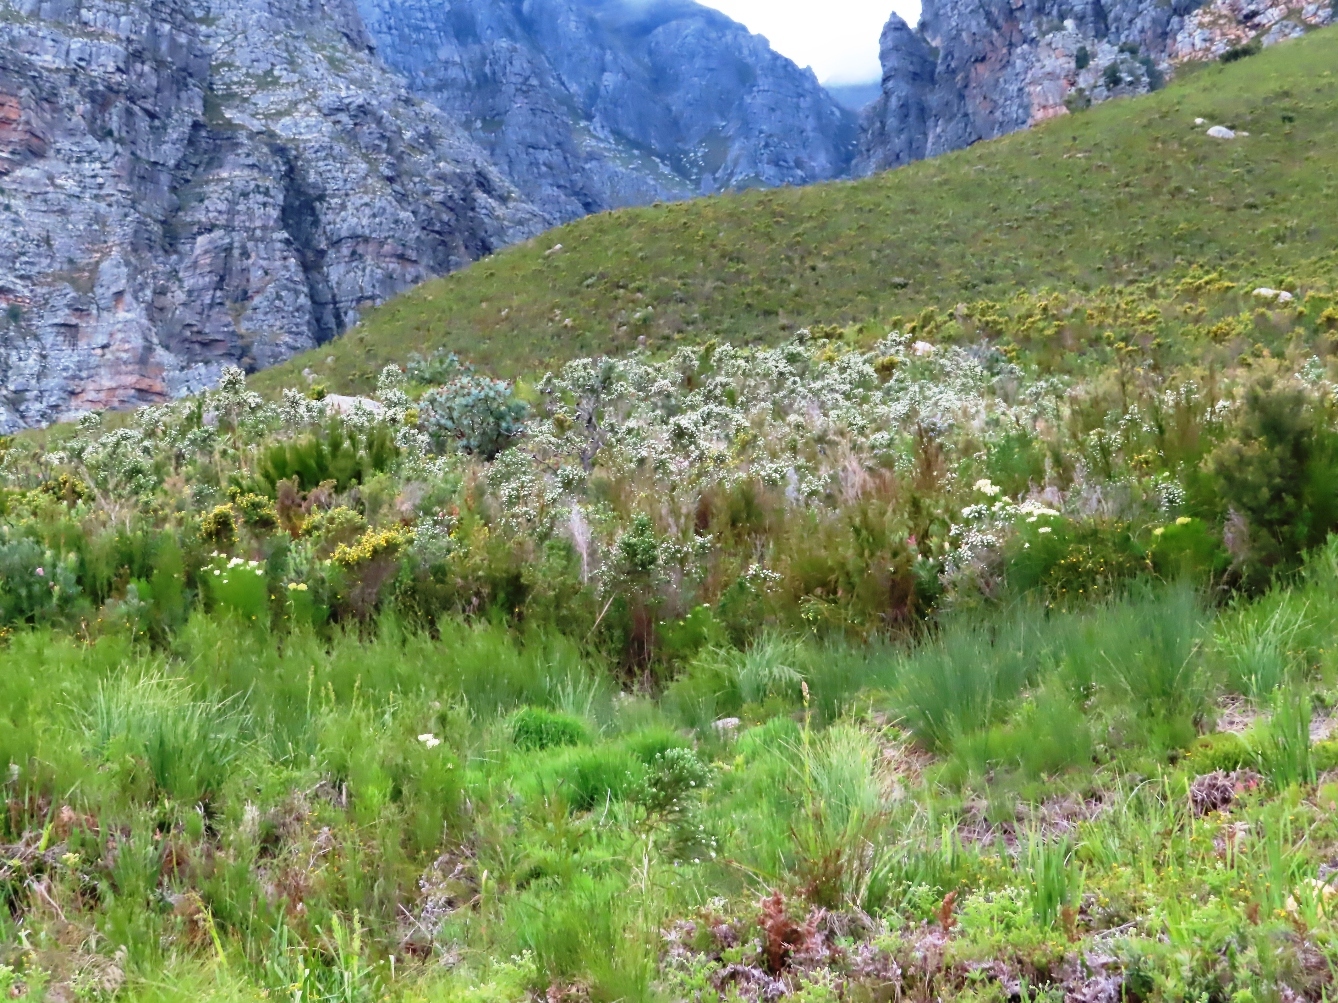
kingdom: Plantae
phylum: Tracheophyta
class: Magnoliopsida
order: Fabales
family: Fabaceae
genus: Aspalathus
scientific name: Aspalathus cephalotes
